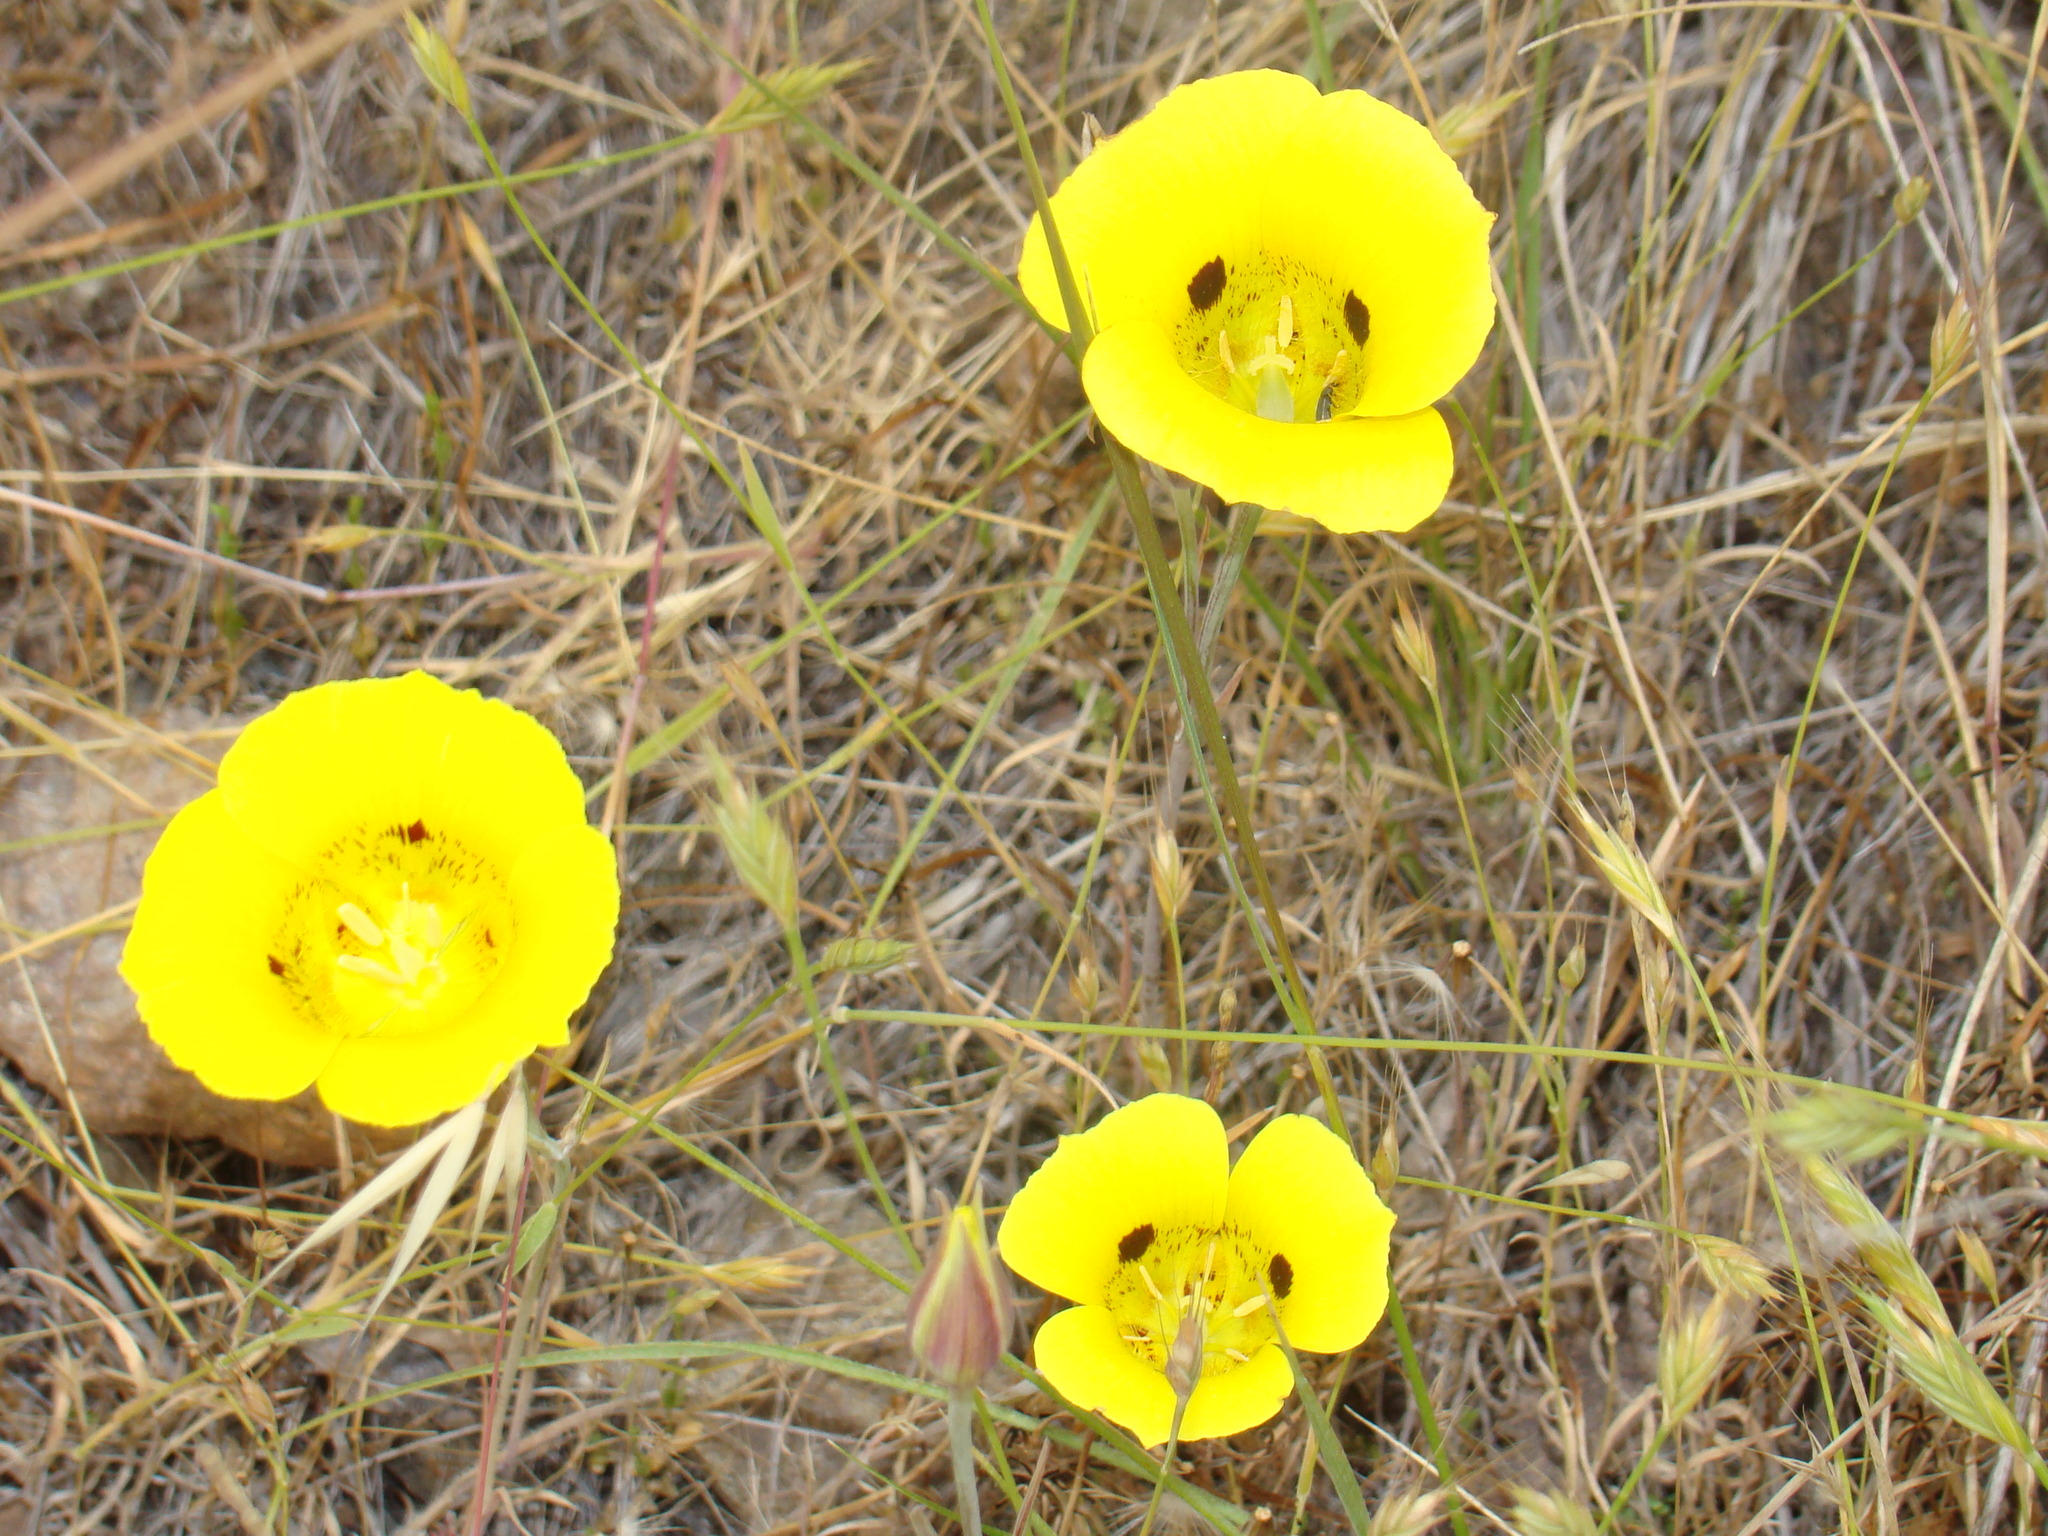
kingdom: Plantae
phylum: Tracheophyta
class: Liliopsida
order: Liliales
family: Liliaceae
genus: Calochortus
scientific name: Calochortus luteus
